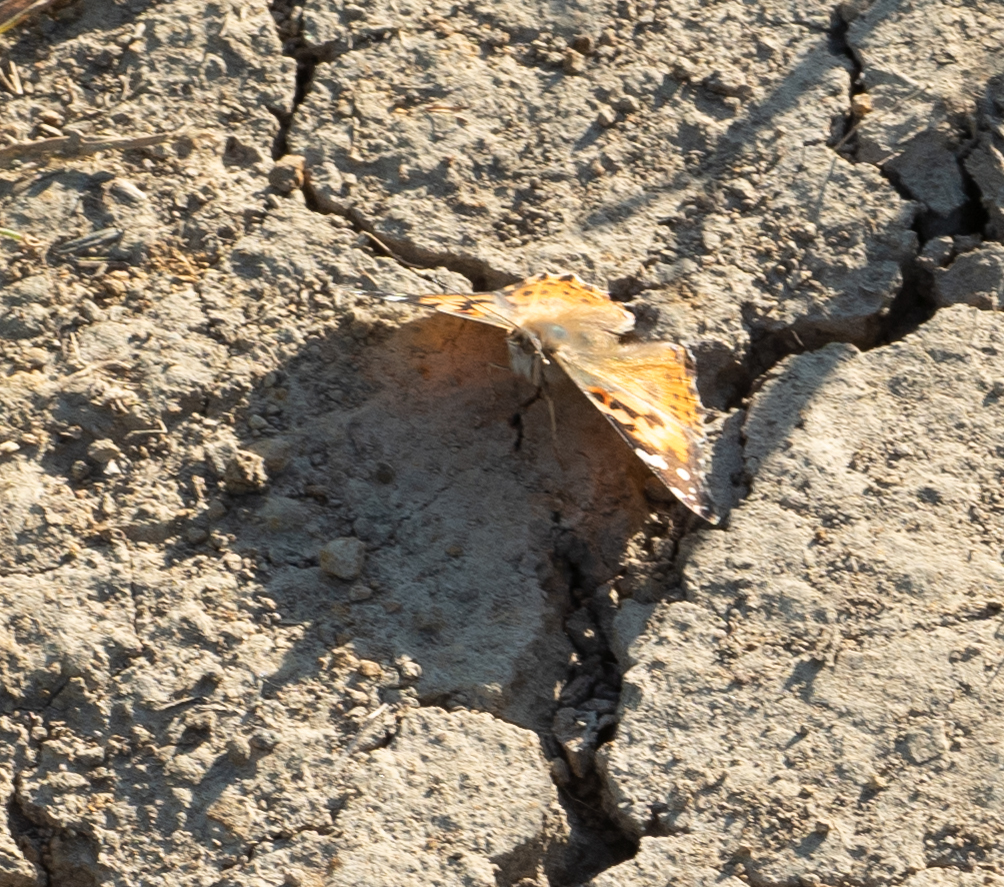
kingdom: Animalia
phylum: Arthropoda
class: Insecta
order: Lepidoptera
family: Nymphalidae
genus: Vanessa
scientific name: Vanessa cardui
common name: Painted lady
